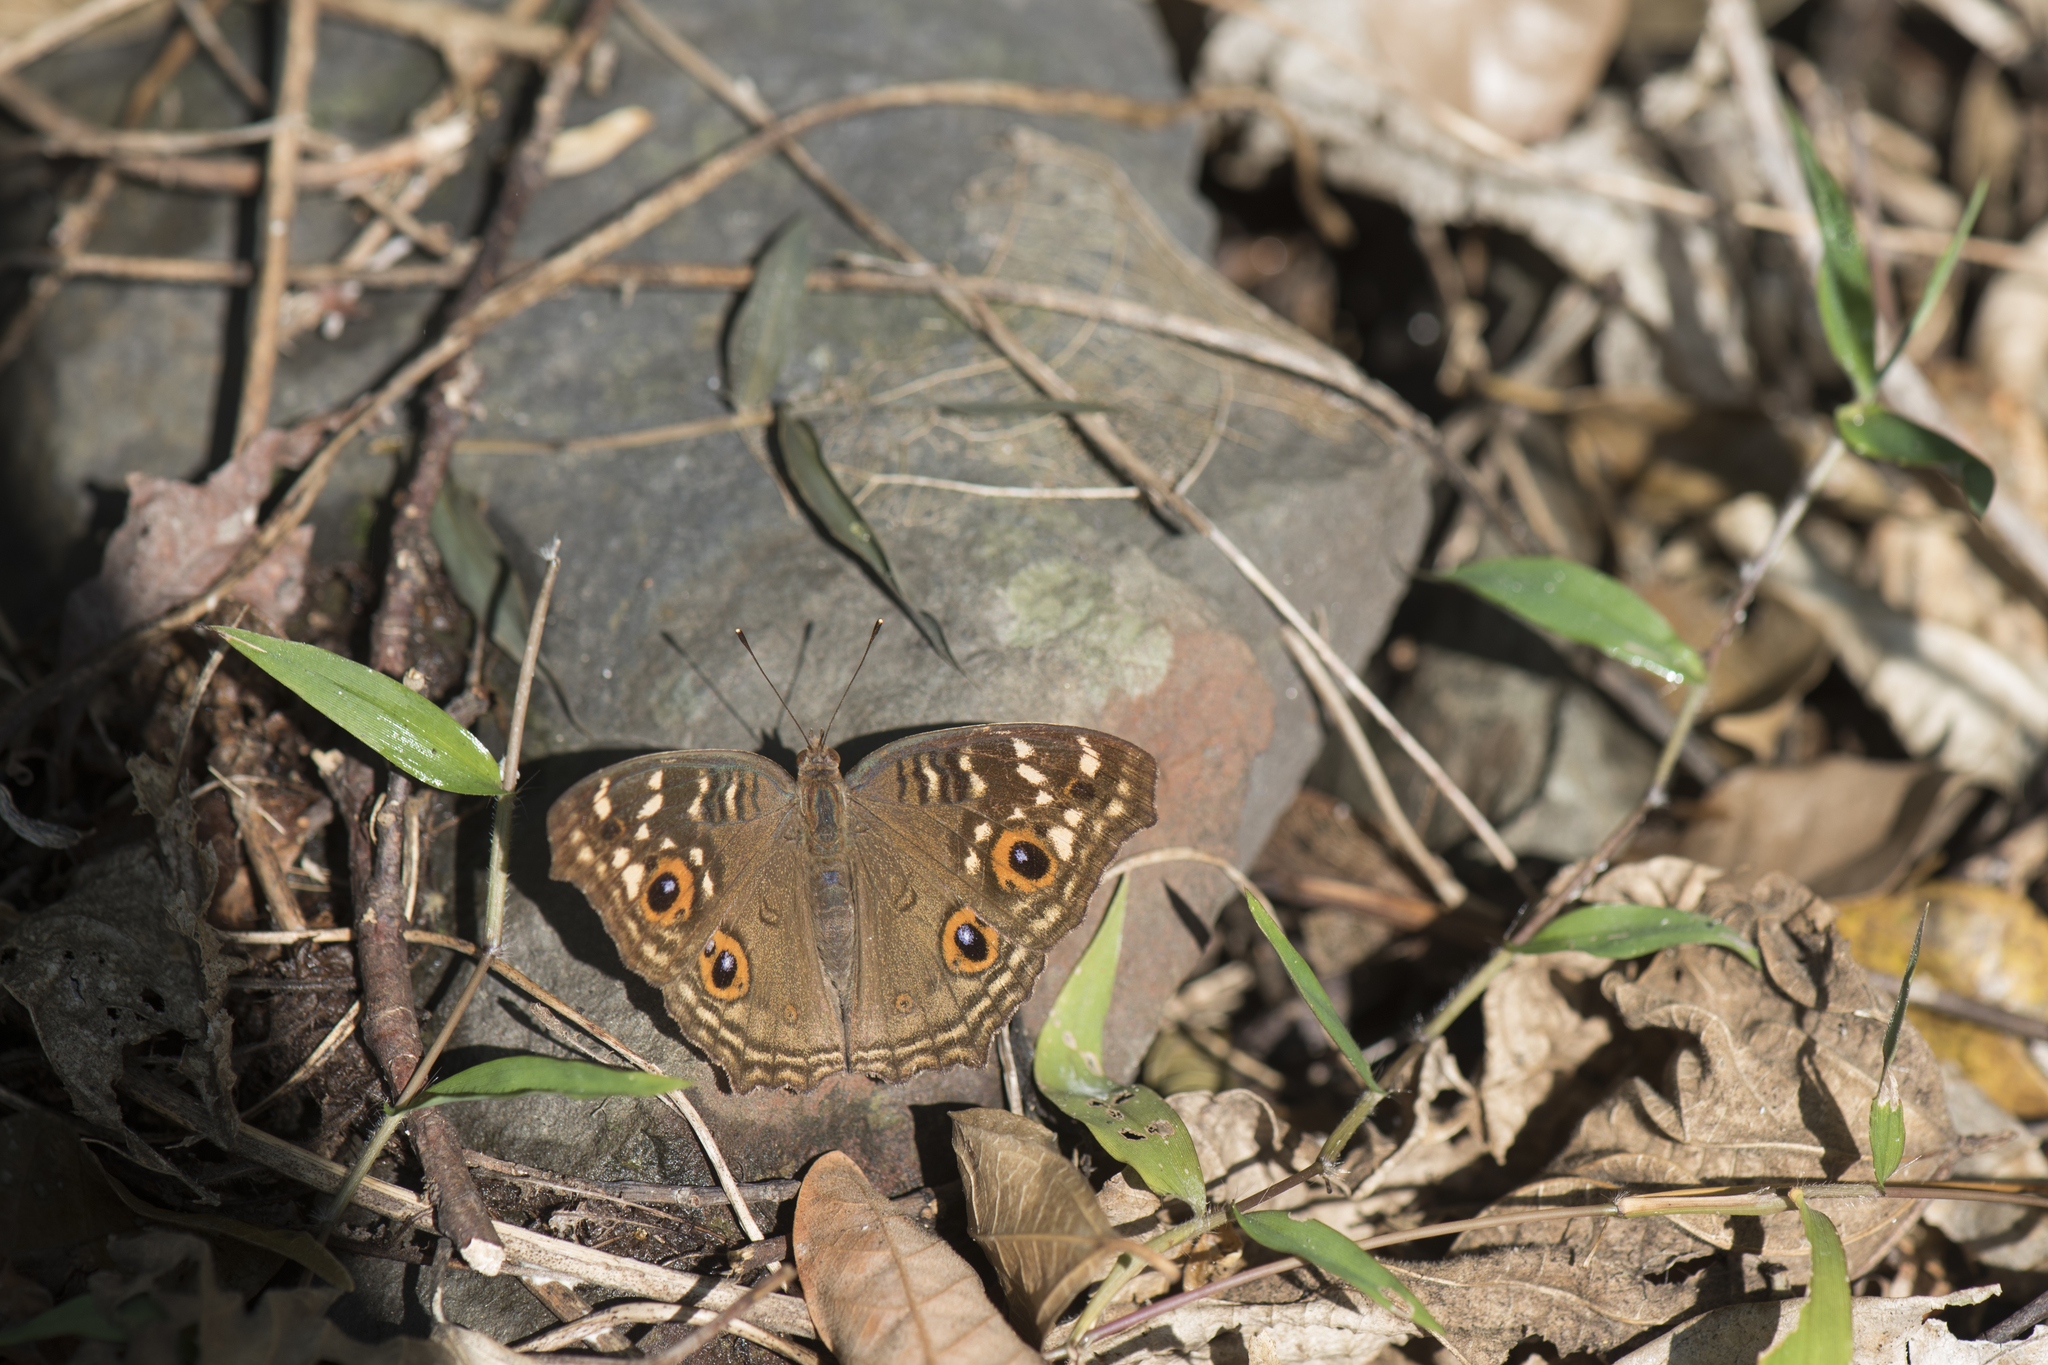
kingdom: Animalia
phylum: Arthropoda
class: Insecta
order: Lepidoptera
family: Nymphalidae
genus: Junonia
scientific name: Junonia lemonias
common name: Lemon pansy
